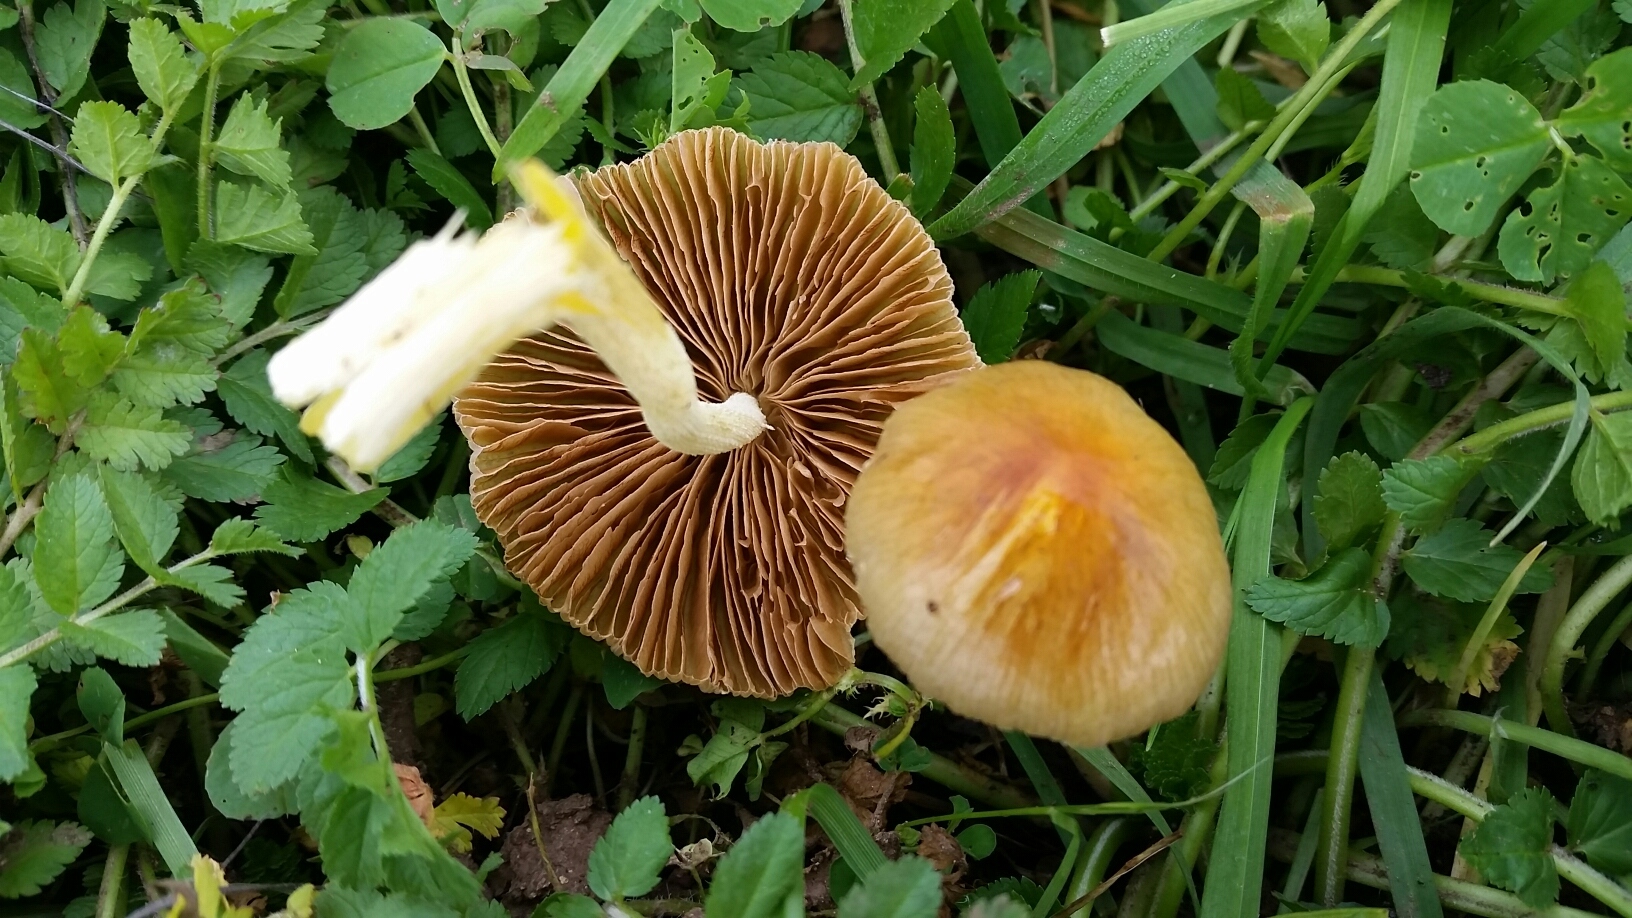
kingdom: Fungi
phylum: Basidiomycota
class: Agaricomycetes
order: Agaricales
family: Bolbitiaceae
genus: Bolbitius
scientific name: Bolbitius titubans
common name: Yellow fieldcap
